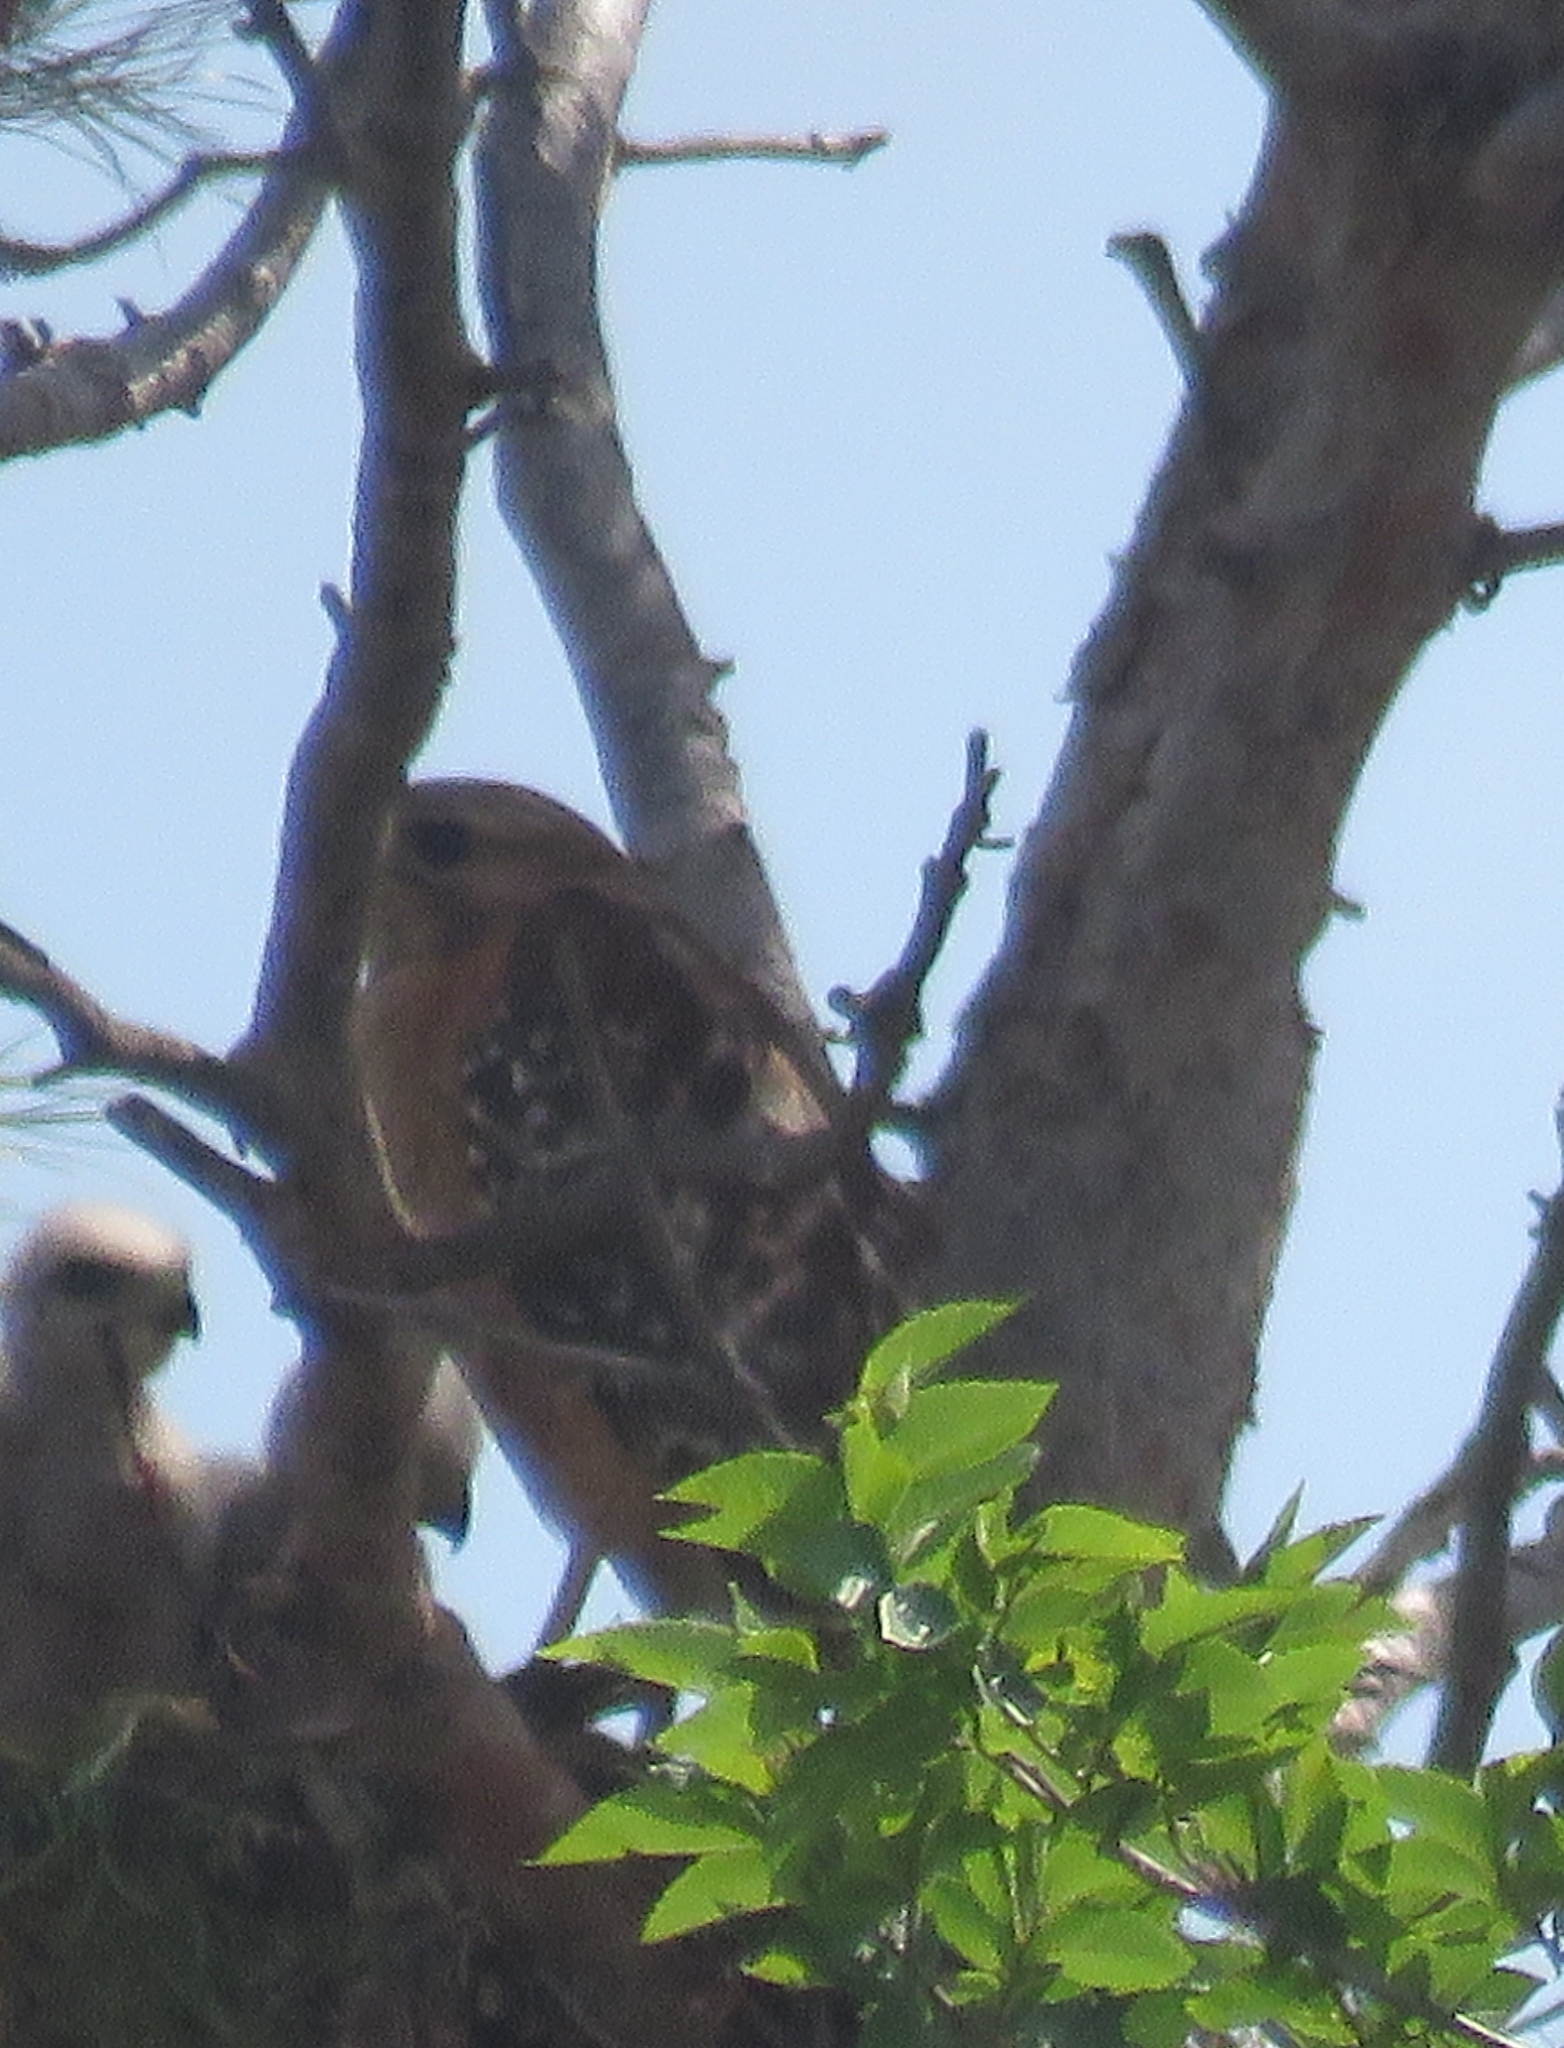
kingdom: Animalia
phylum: Chordata
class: Aves
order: Accipitriformes
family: Accipitridae
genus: Buteo
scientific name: Buteo lineatus
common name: Red-shouldered hawk
